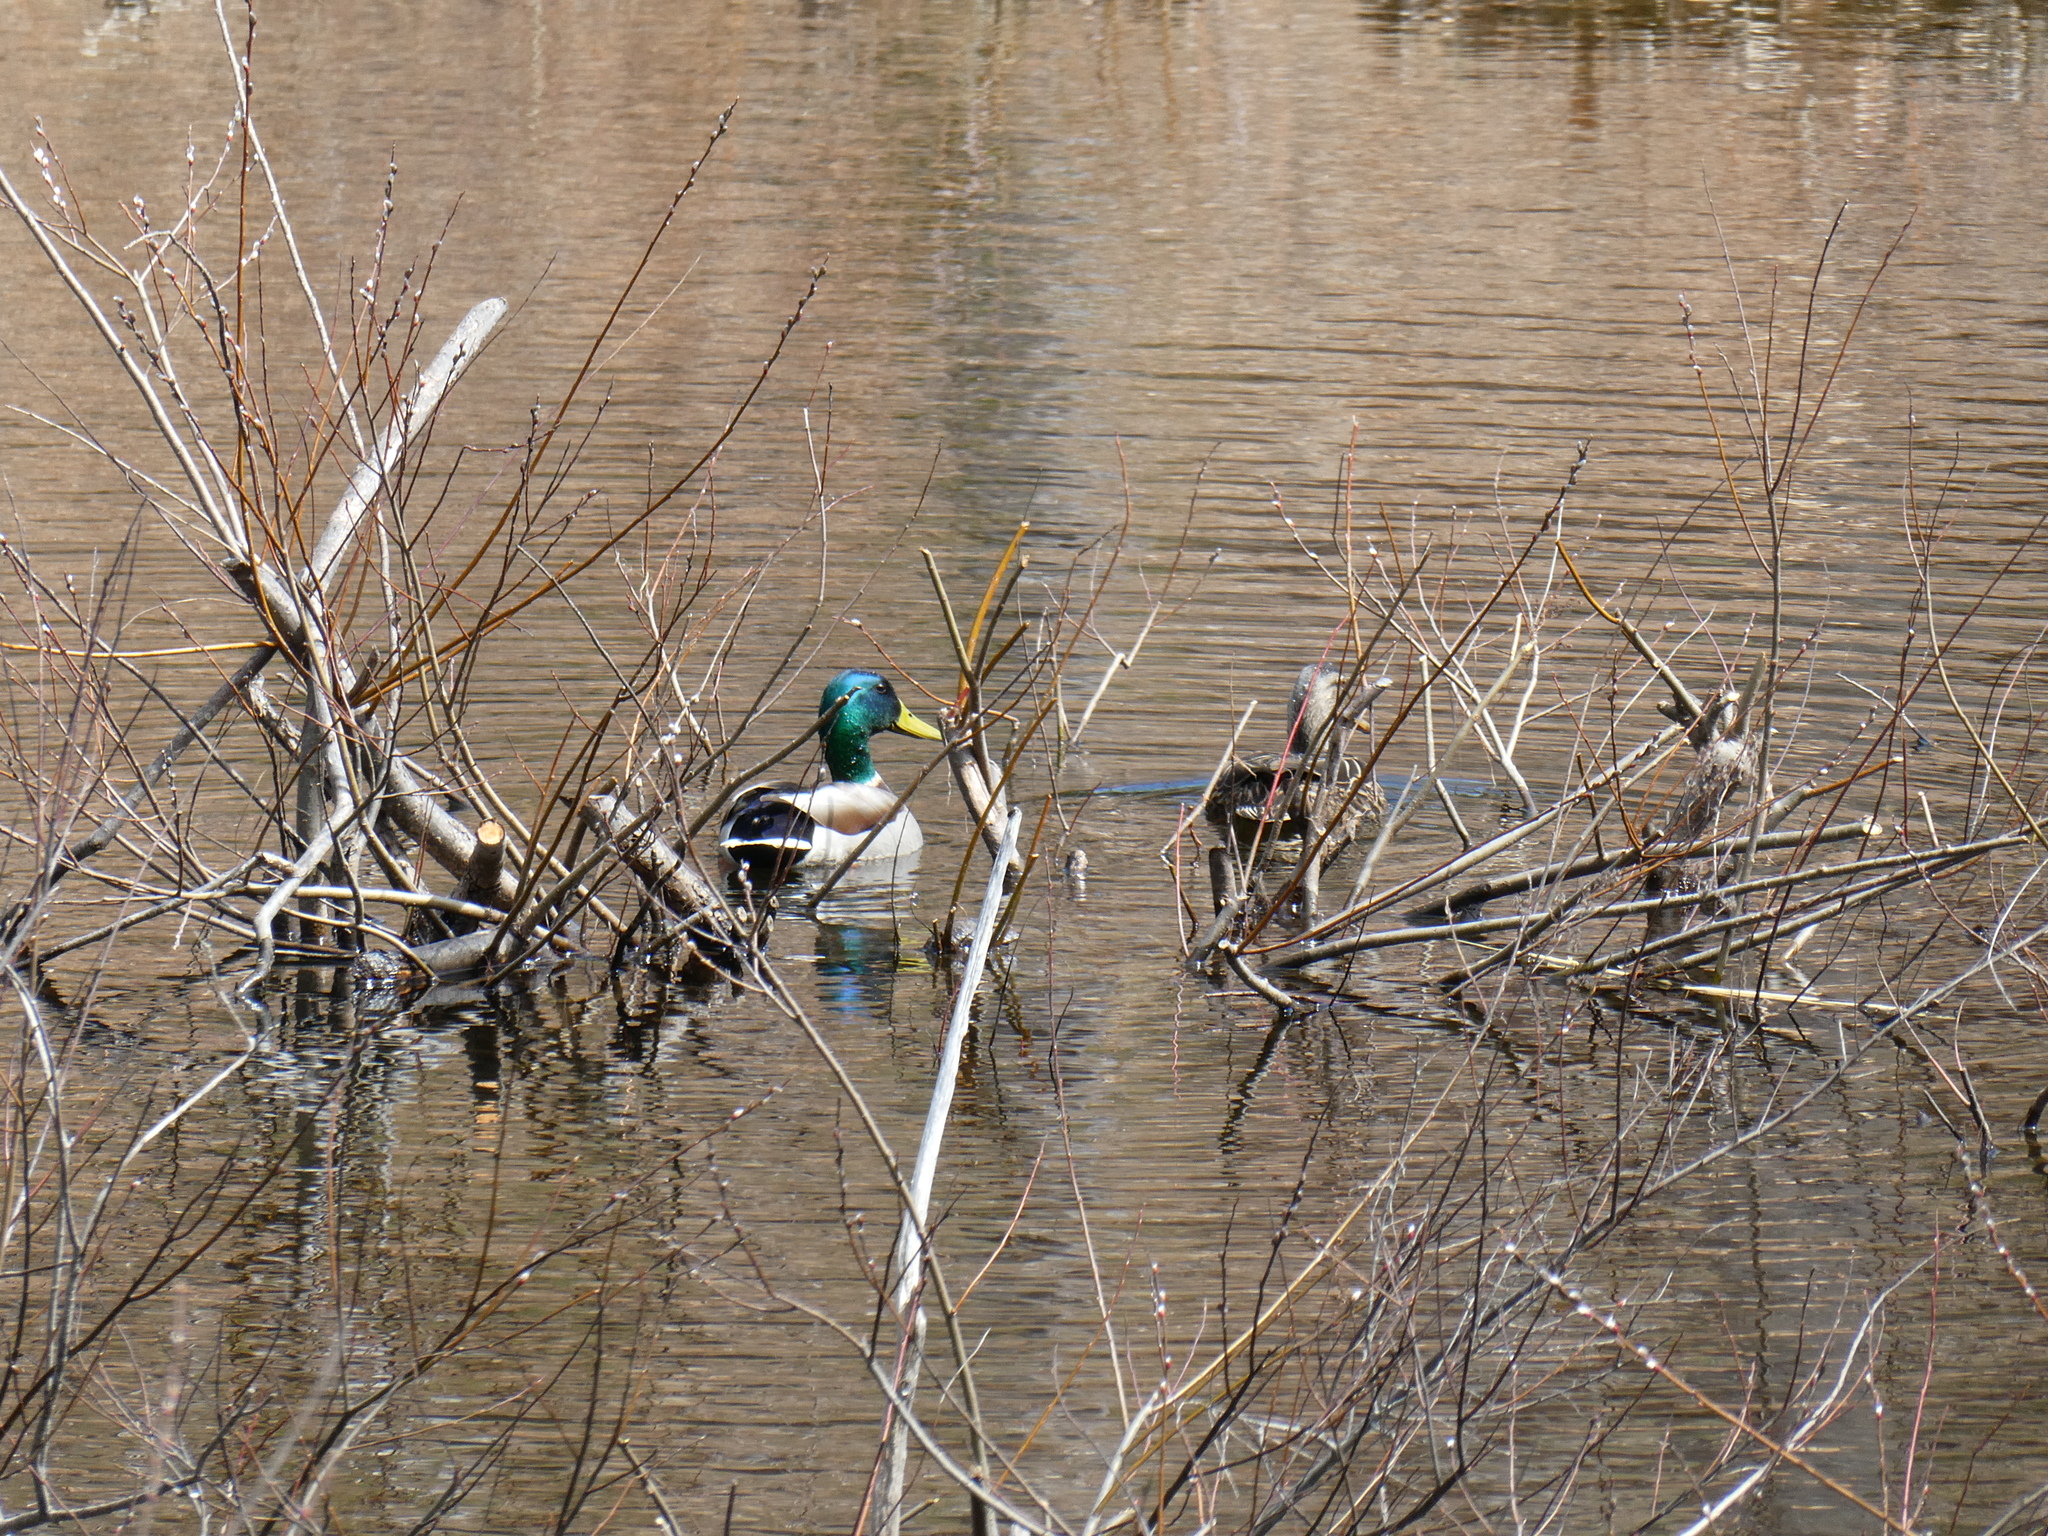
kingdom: Animalia
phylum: Chordata
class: Aves
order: Anseriformes
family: Anatidae
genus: Anas
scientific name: Anas platyrhynchos
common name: Mallard
